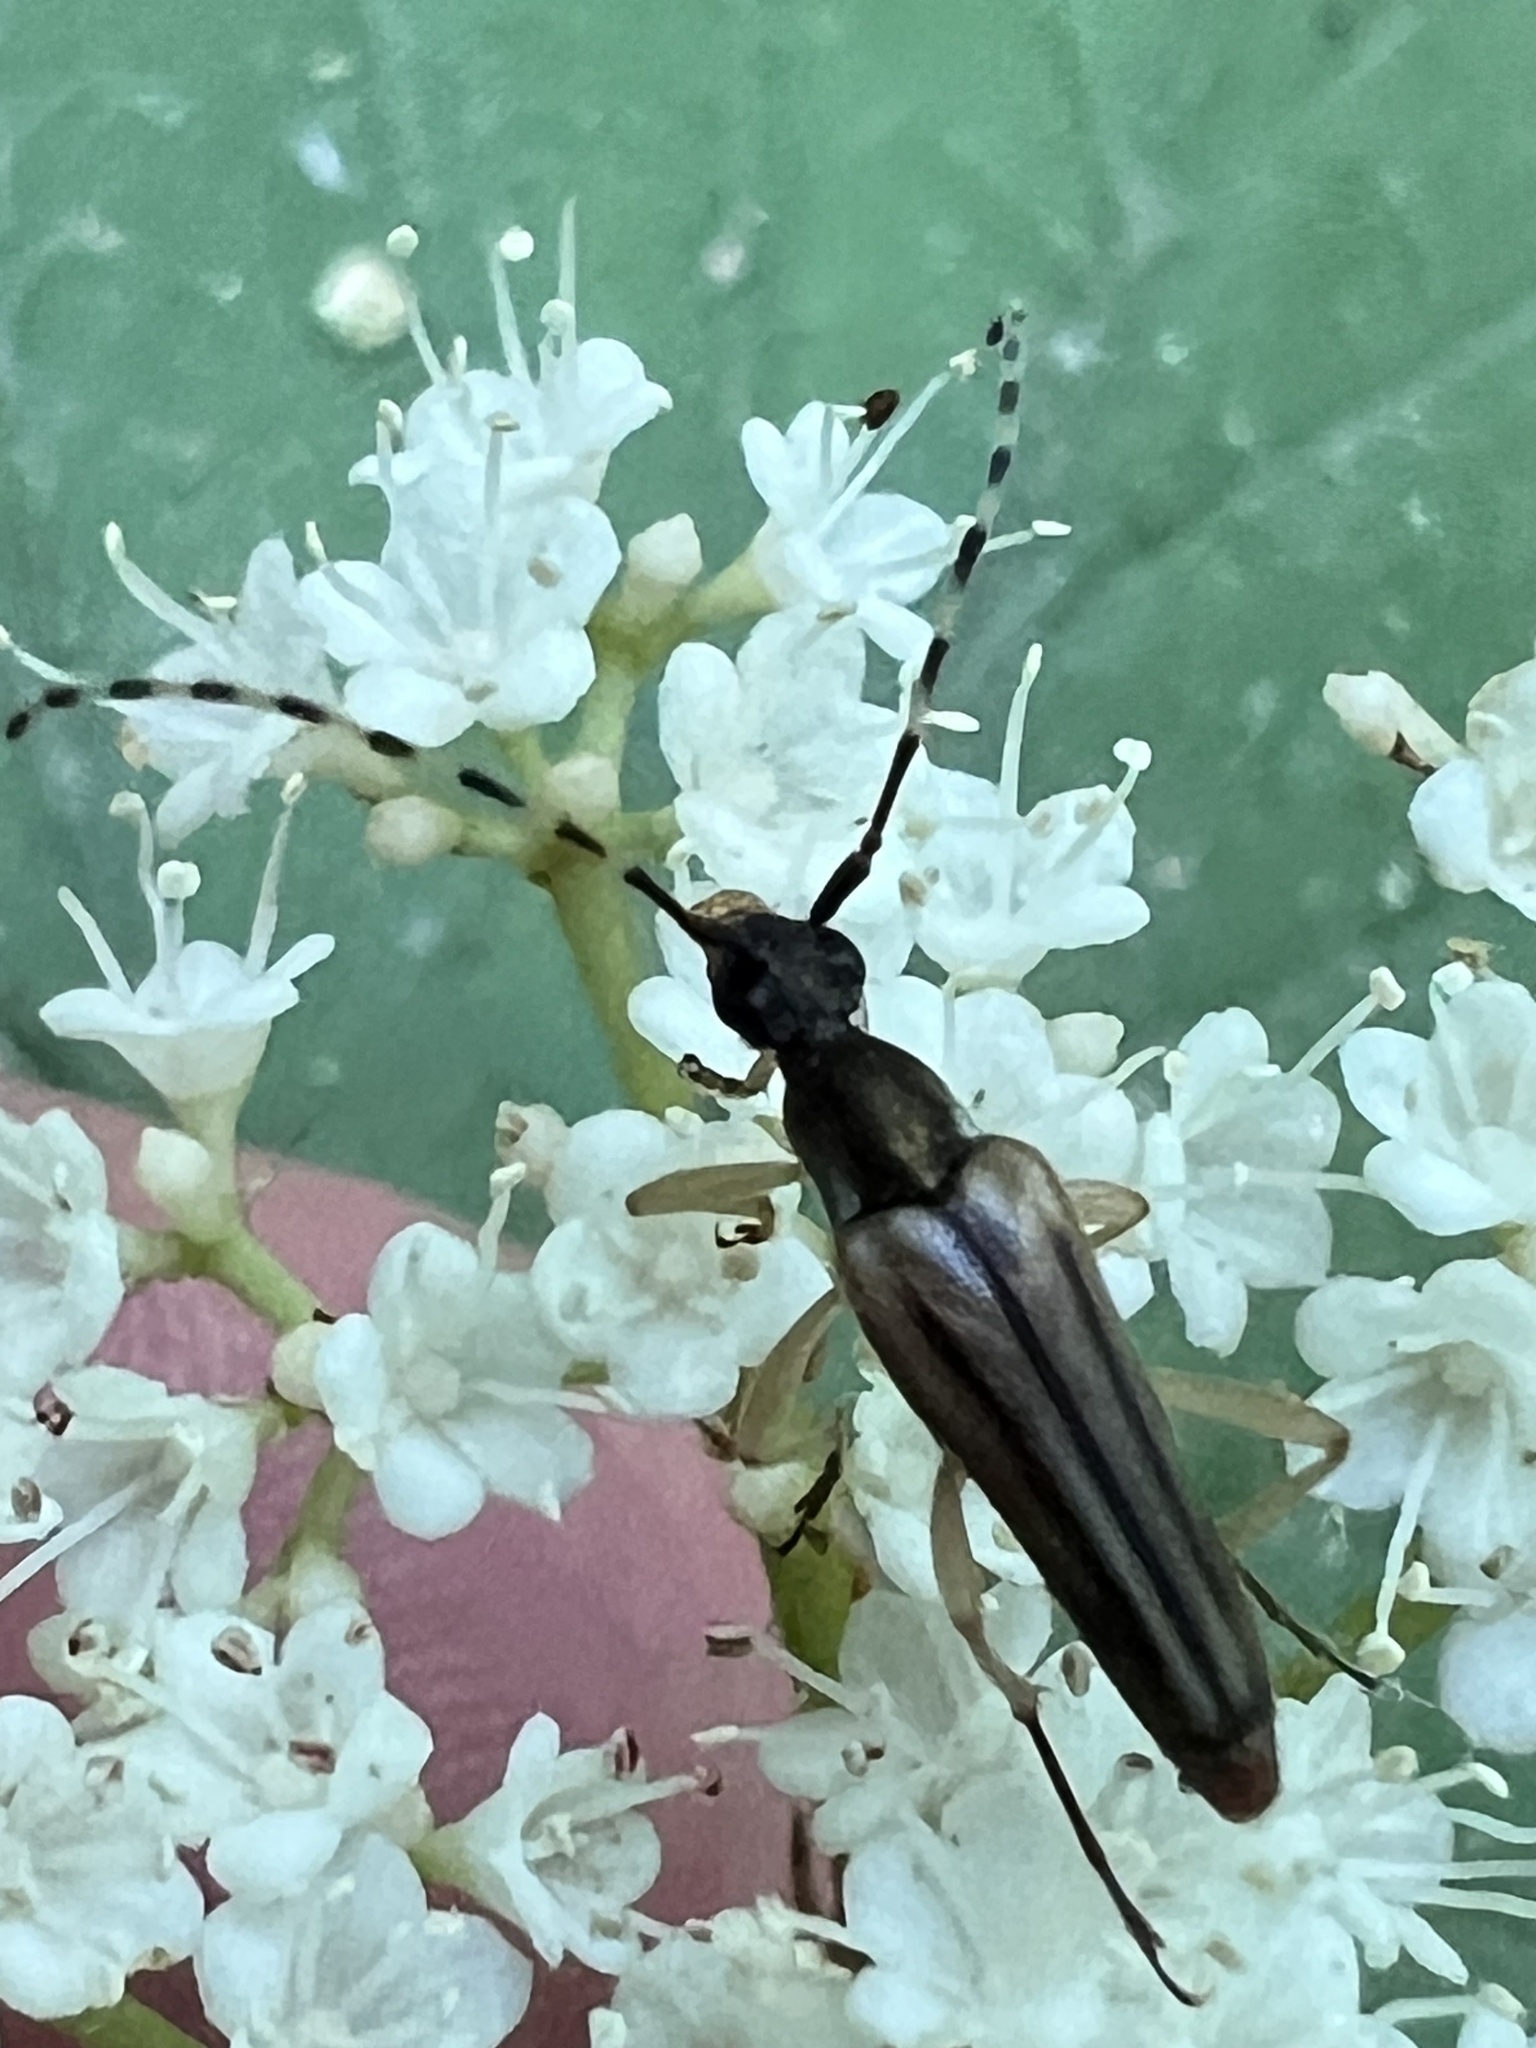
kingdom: Animalia
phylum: Arthropoda
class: Insecta
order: Coleoptera
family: Cerambycidae
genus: Analeptura
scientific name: Analeptura lineola
